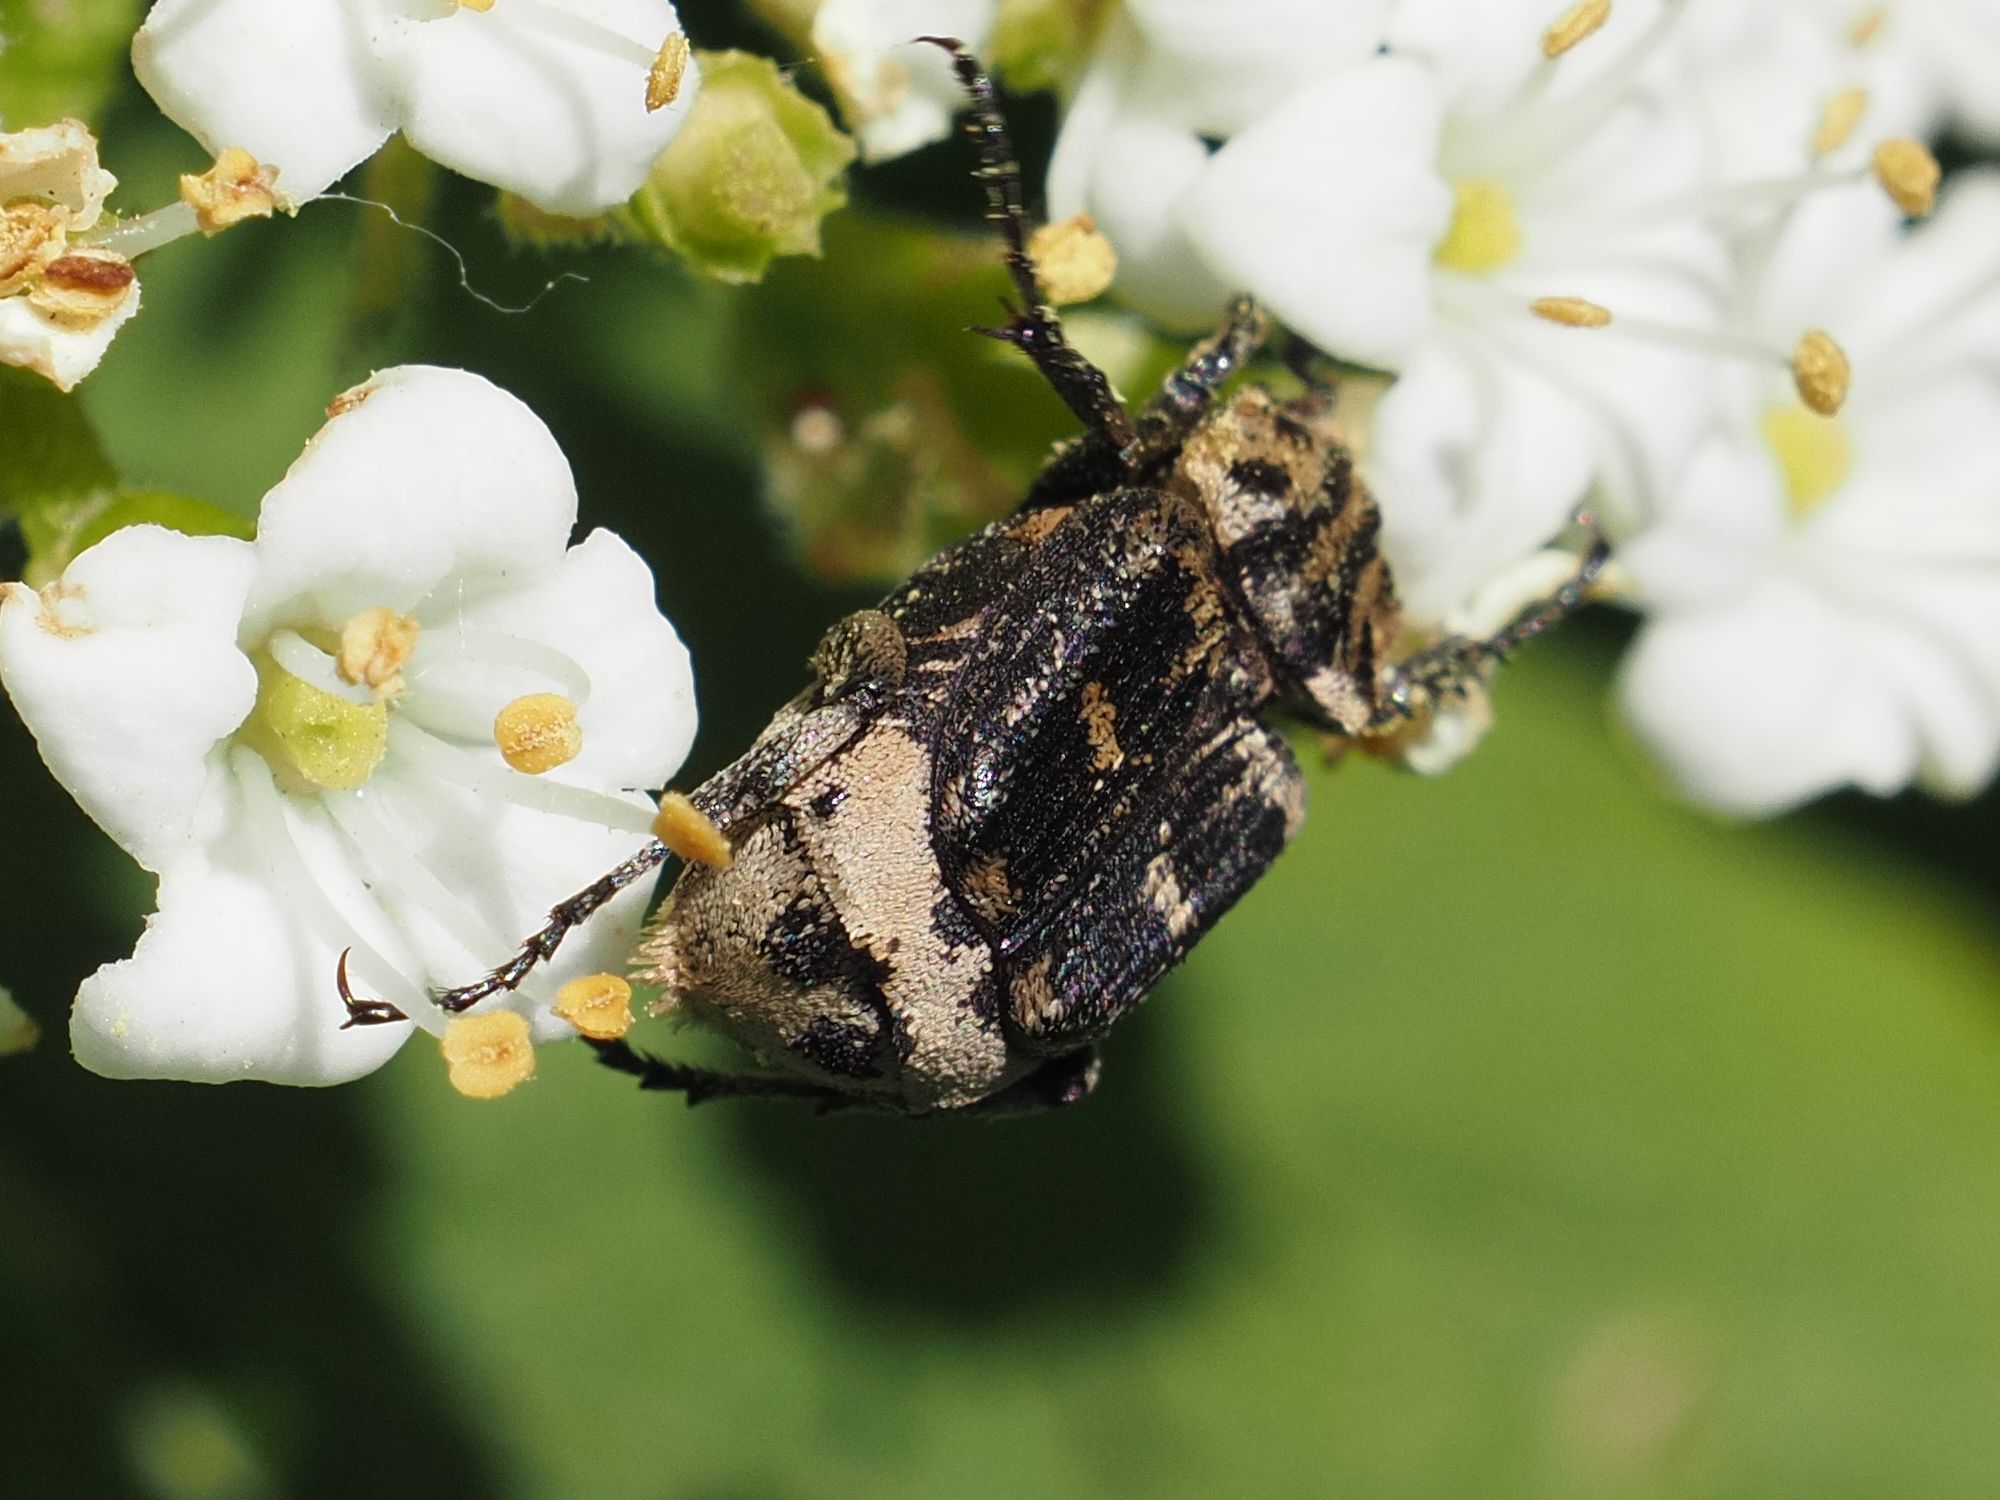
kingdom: Animalia
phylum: Arthropoda
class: Insecta
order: Coleoptera
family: Scarabaeidae
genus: Valgus
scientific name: Valgus hemipterus
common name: Bug flower chafer
